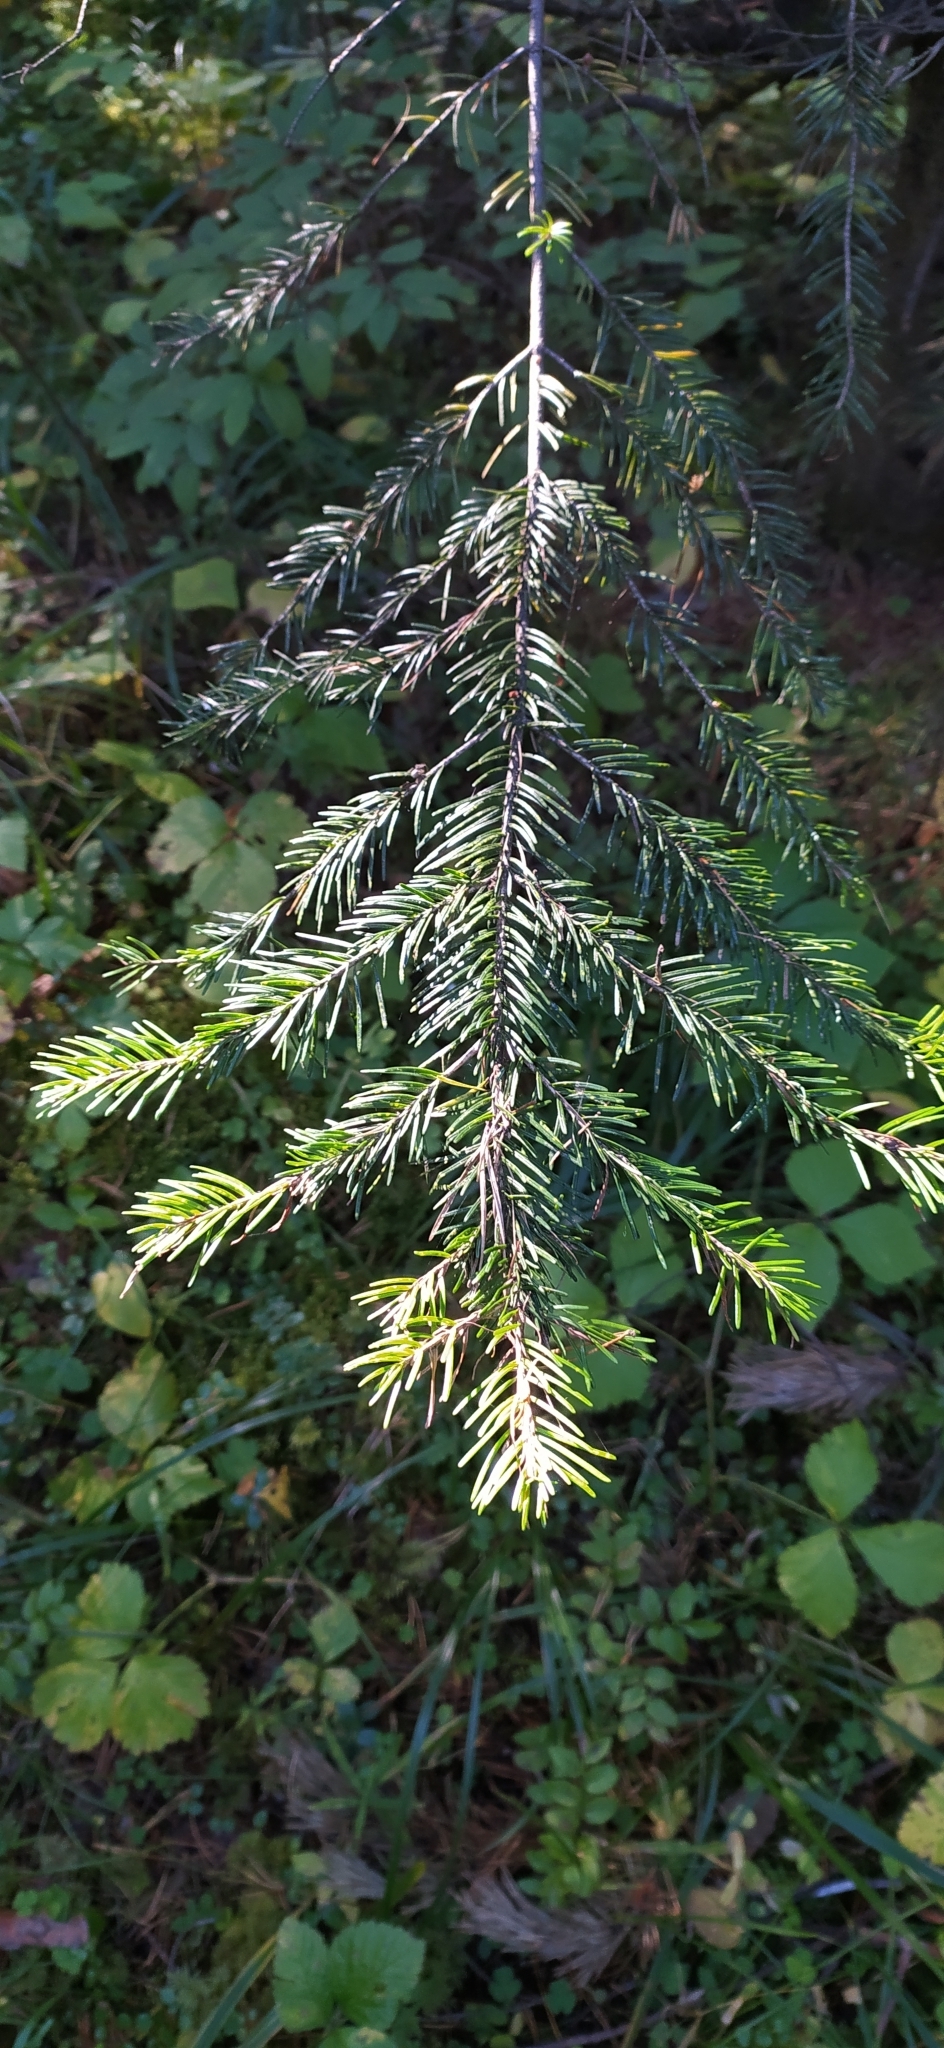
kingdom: Plantae
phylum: Tracheophyta
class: Pinopsida
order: Pinales
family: Pinaceae
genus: Abies
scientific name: Abies sibirica
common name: Siberian fir
